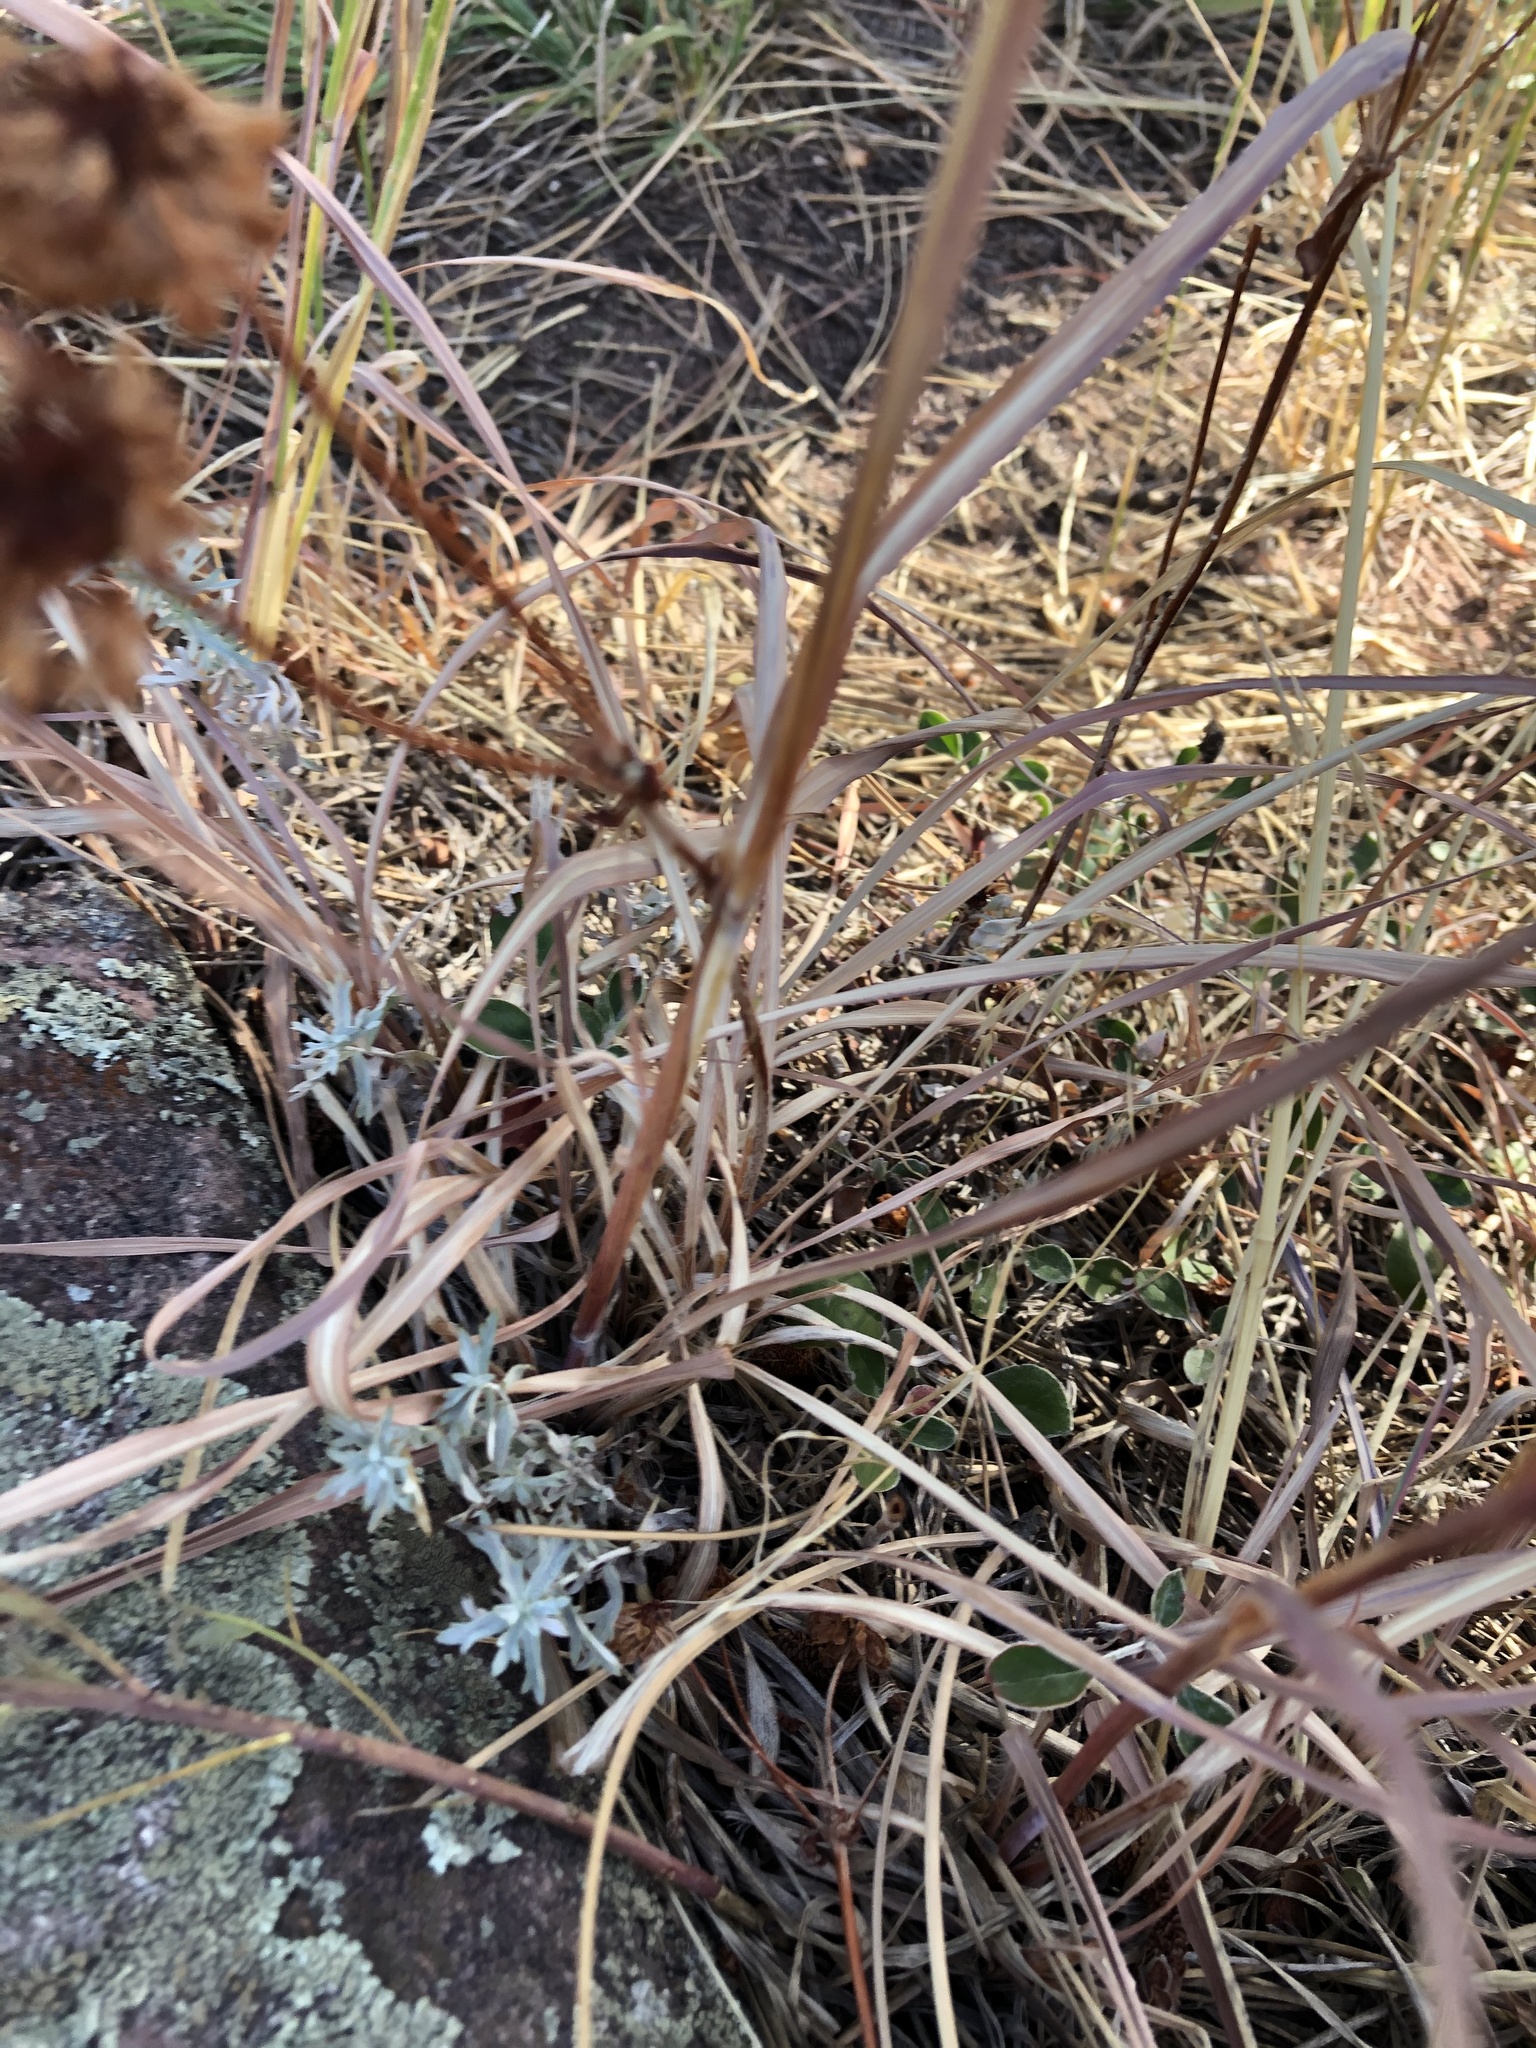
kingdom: Plantae
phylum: Tracheophyta
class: Magnoliopsida
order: Caryophyllales
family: Polygonaceae
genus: Eriogonum
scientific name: Eriogonum umbellatum
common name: Sulfur-buckwheat
